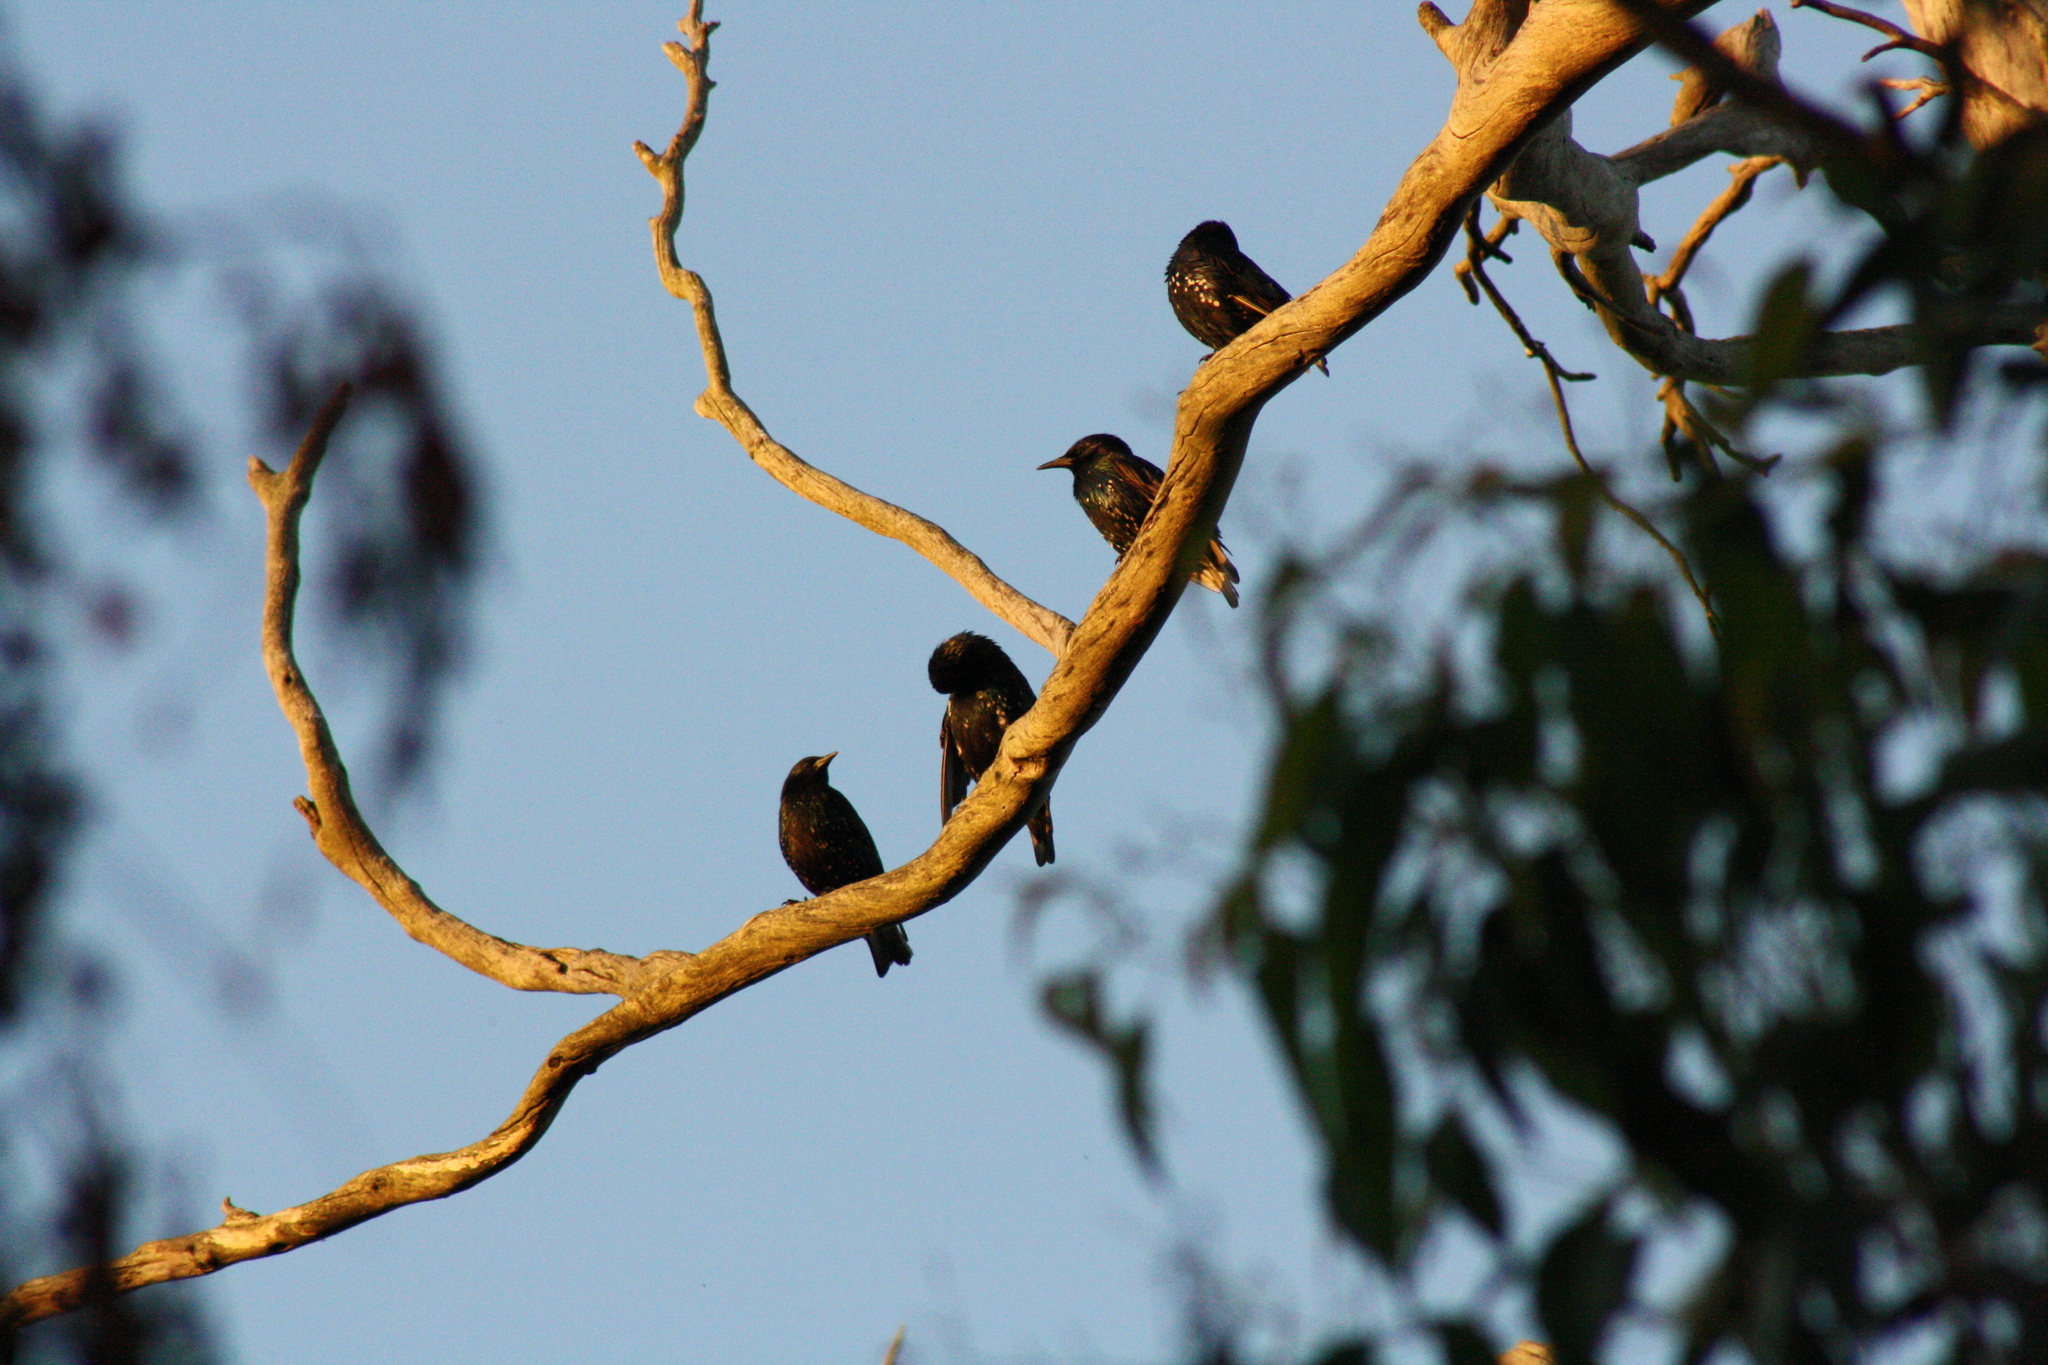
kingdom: Animalia
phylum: Chordata
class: Aves
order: Passeriformes
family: Sturnidae
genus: Sturnus
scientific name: Sturnus vulgaris
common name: Common starling
